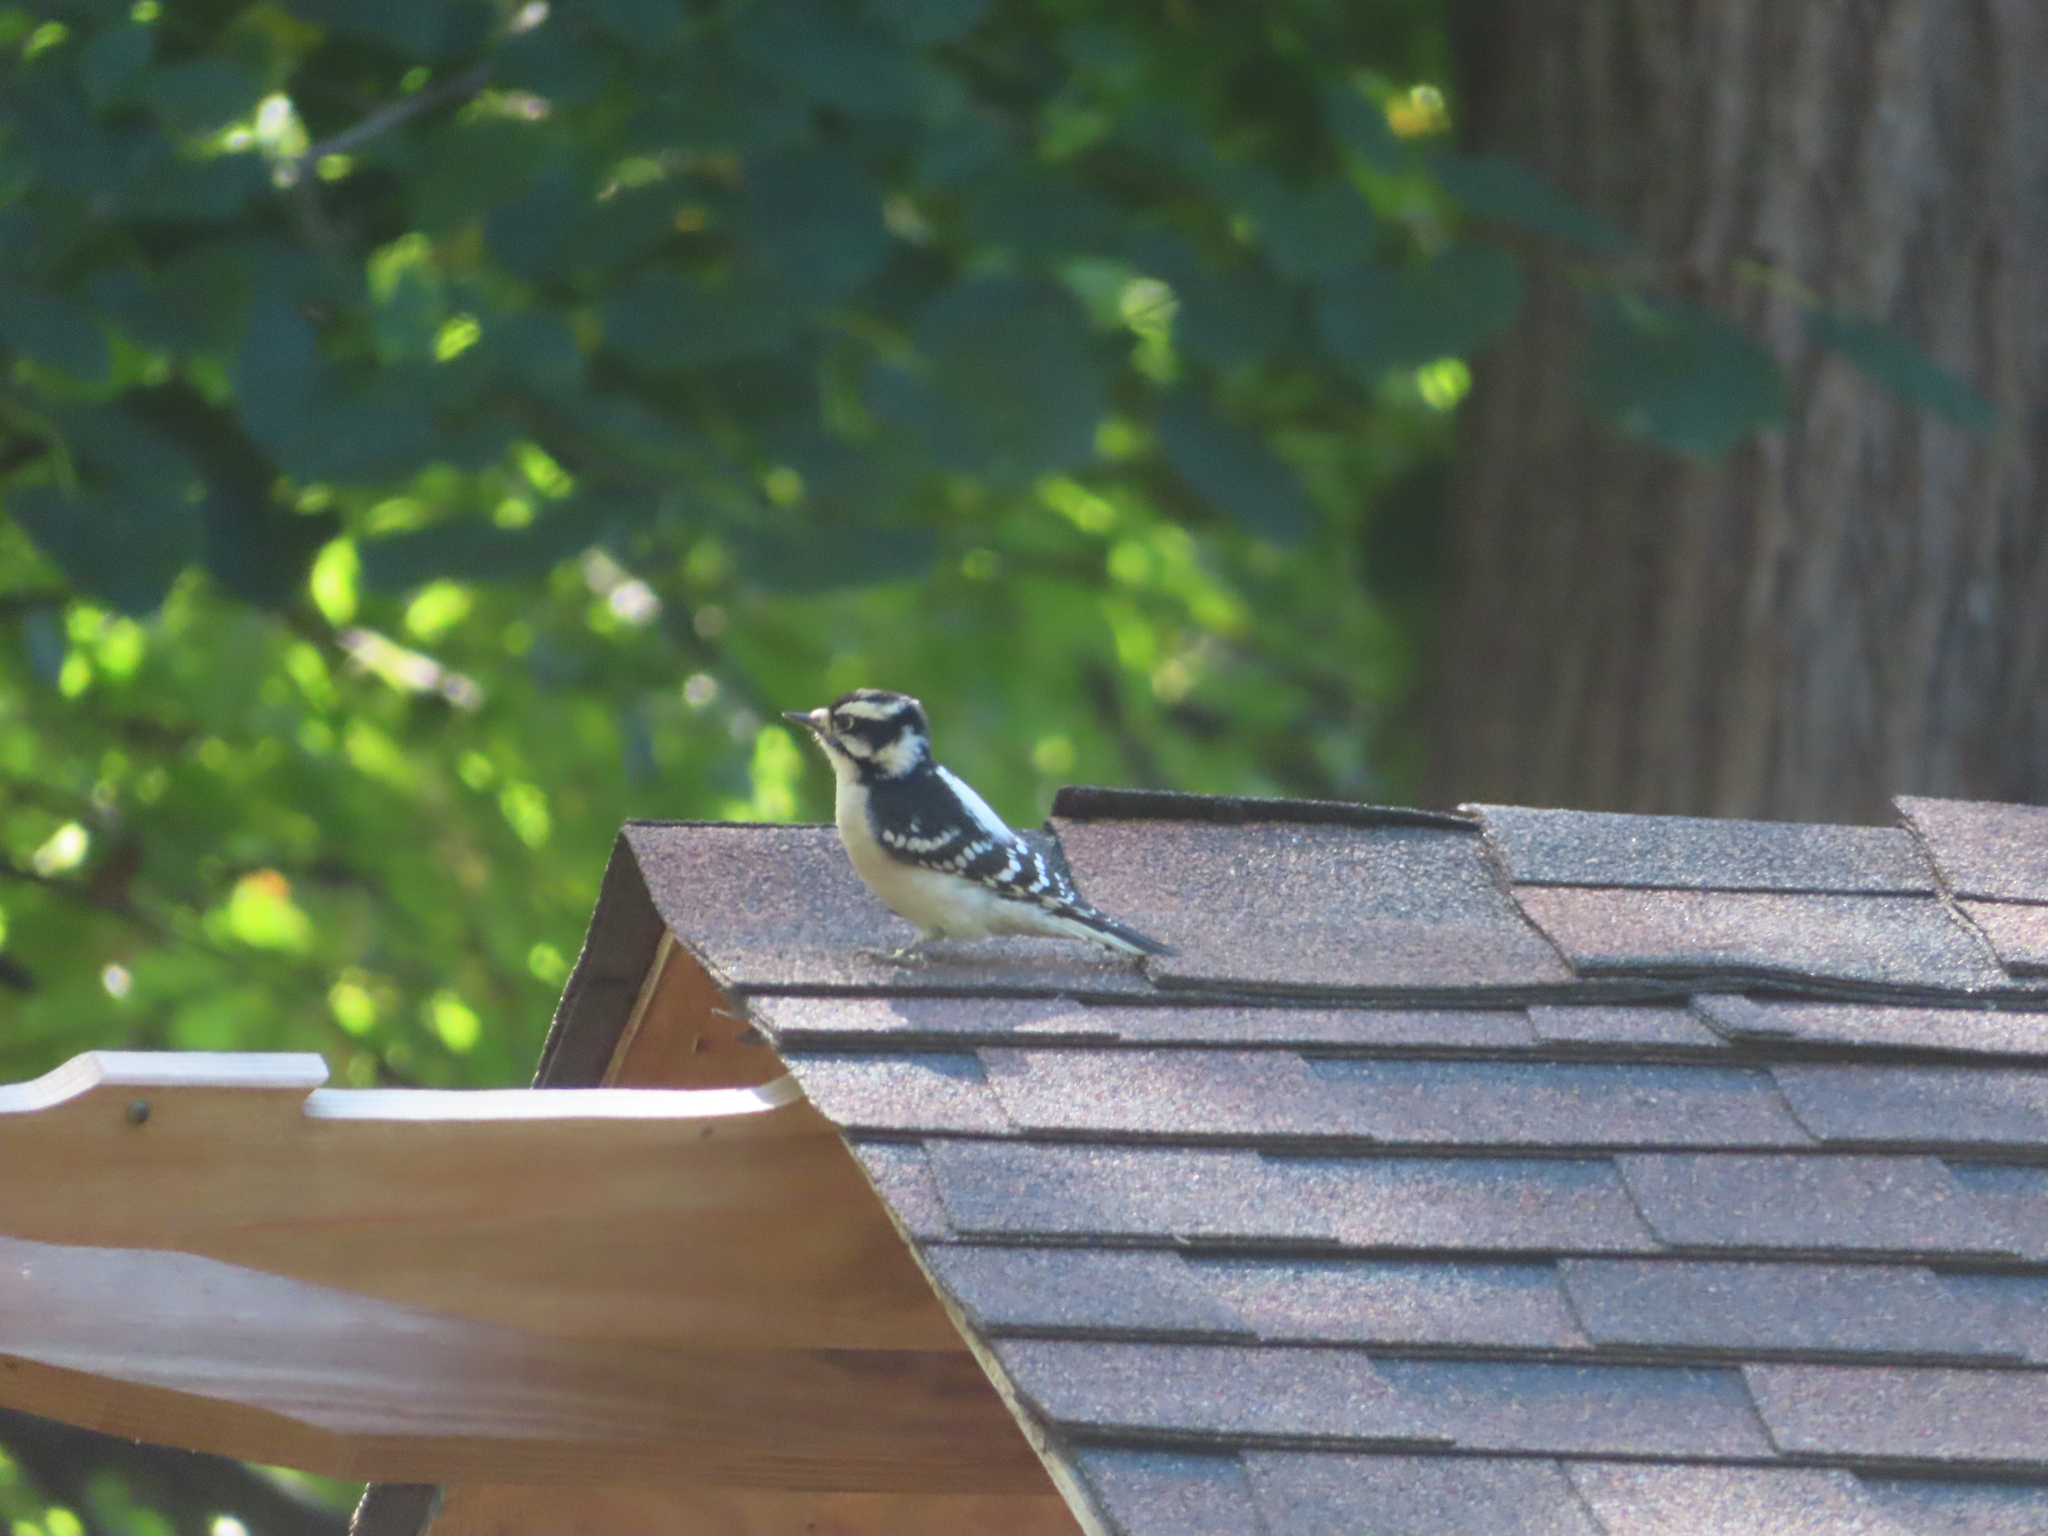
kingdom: Animalia
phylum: Chordata
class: Aves
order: Piciformes
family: Picidae
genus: Dryobates
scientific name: Dryobates pubescens
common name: Downy woodpecker
